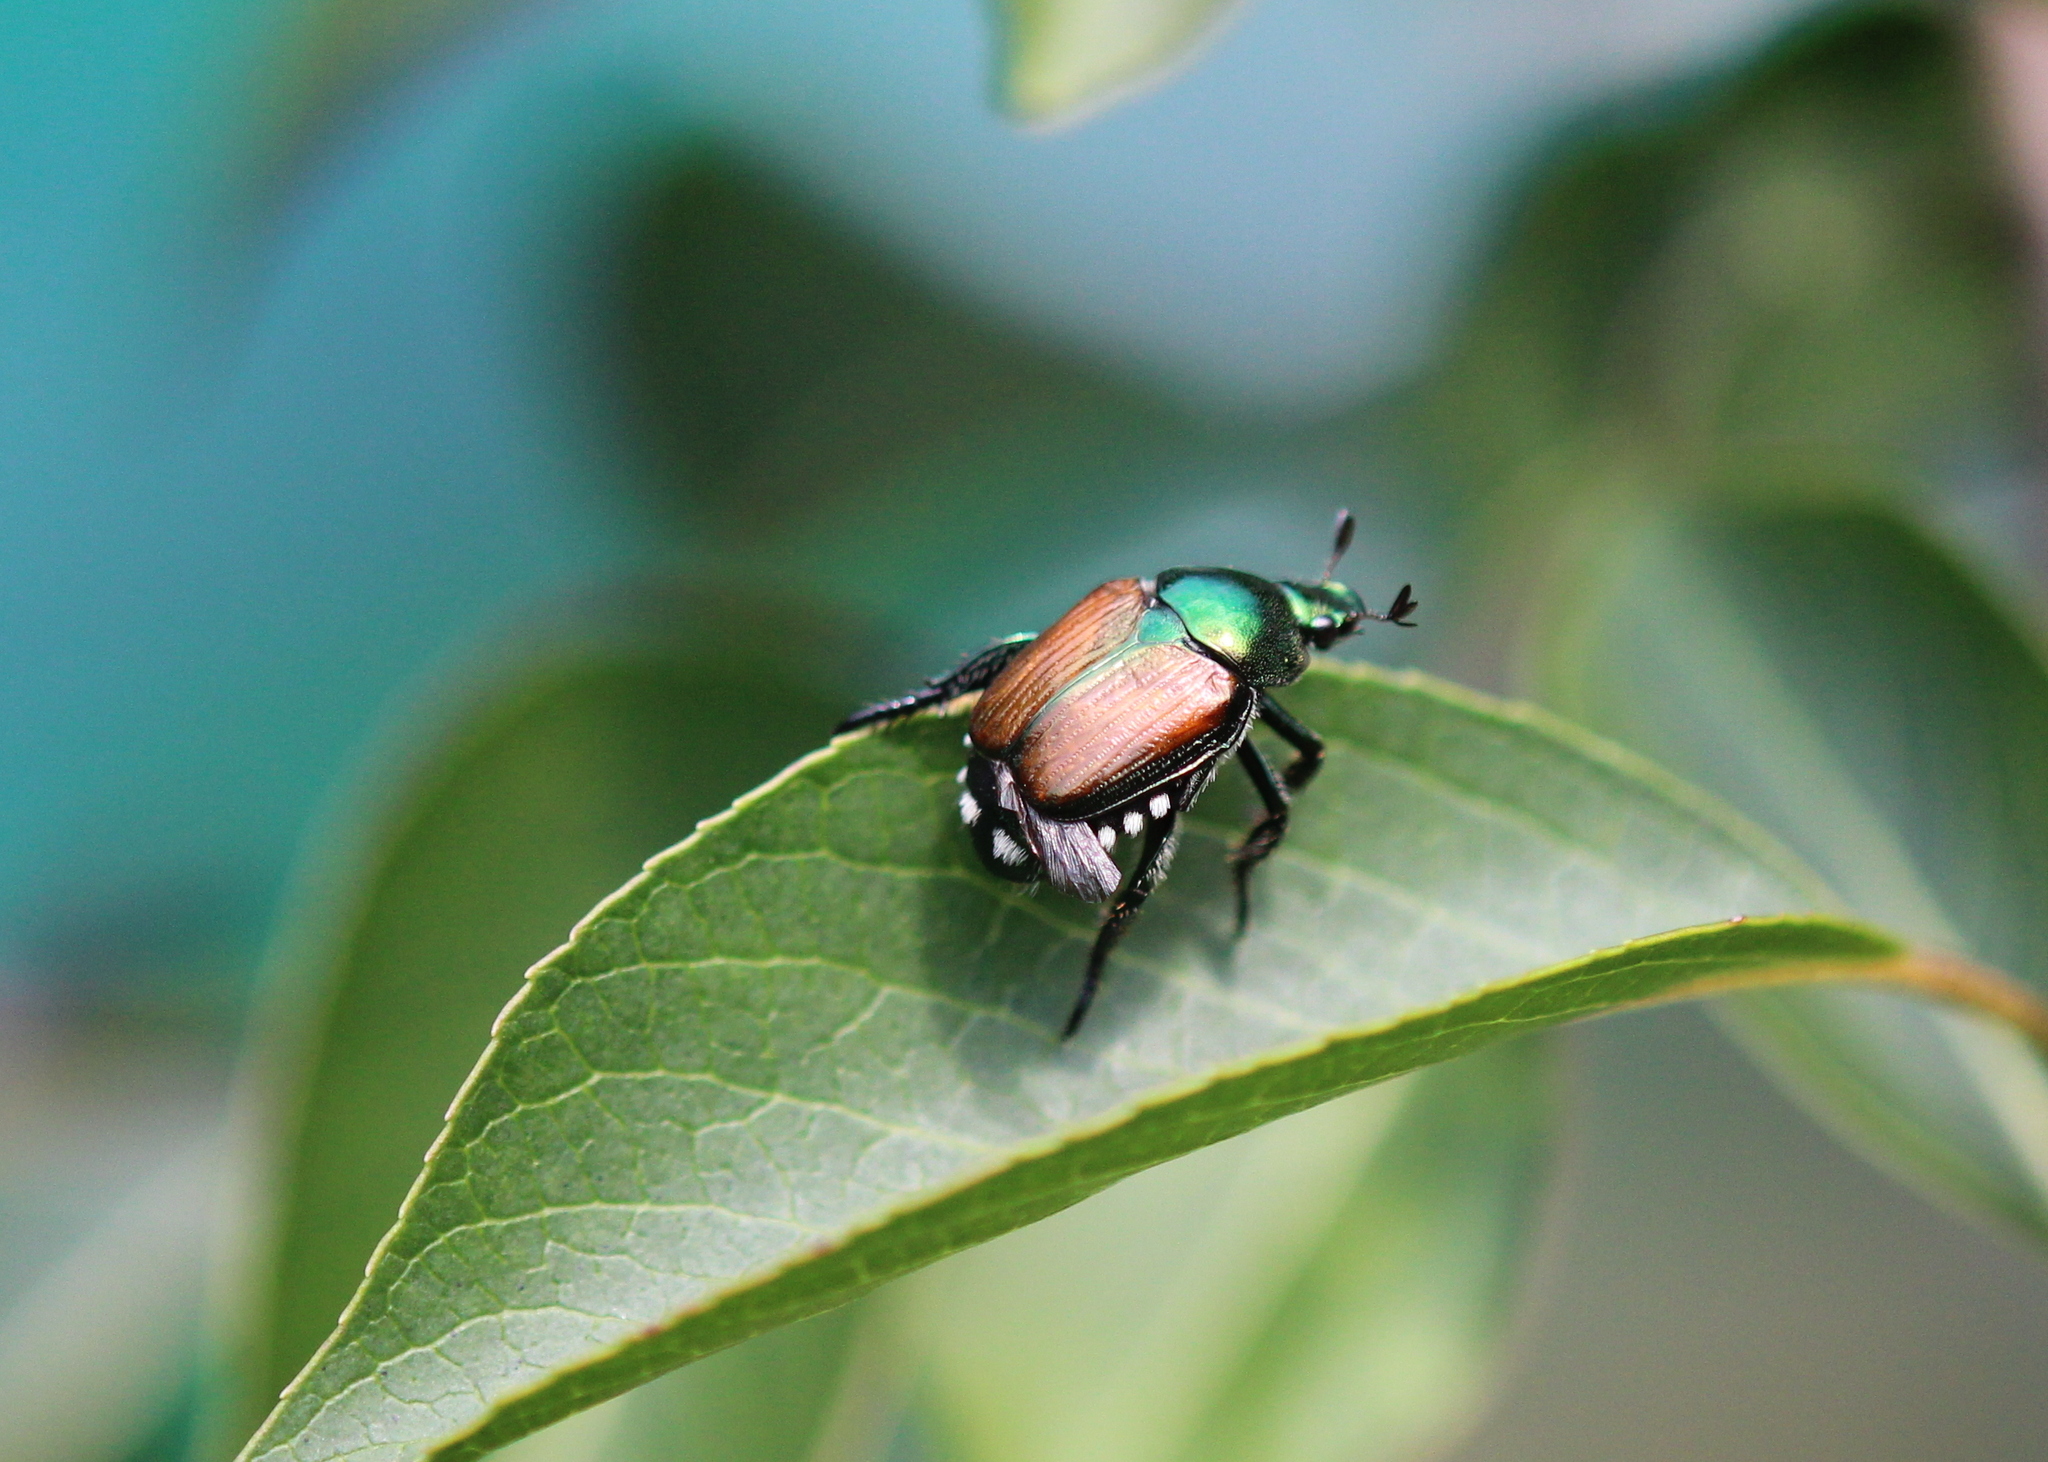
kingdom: Animalia
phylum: Arthropoda
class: Insecta
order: Coleoptera
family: Scarabaeidae
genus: Popillia
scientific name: Popillia japonica
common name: Japanese beetle
